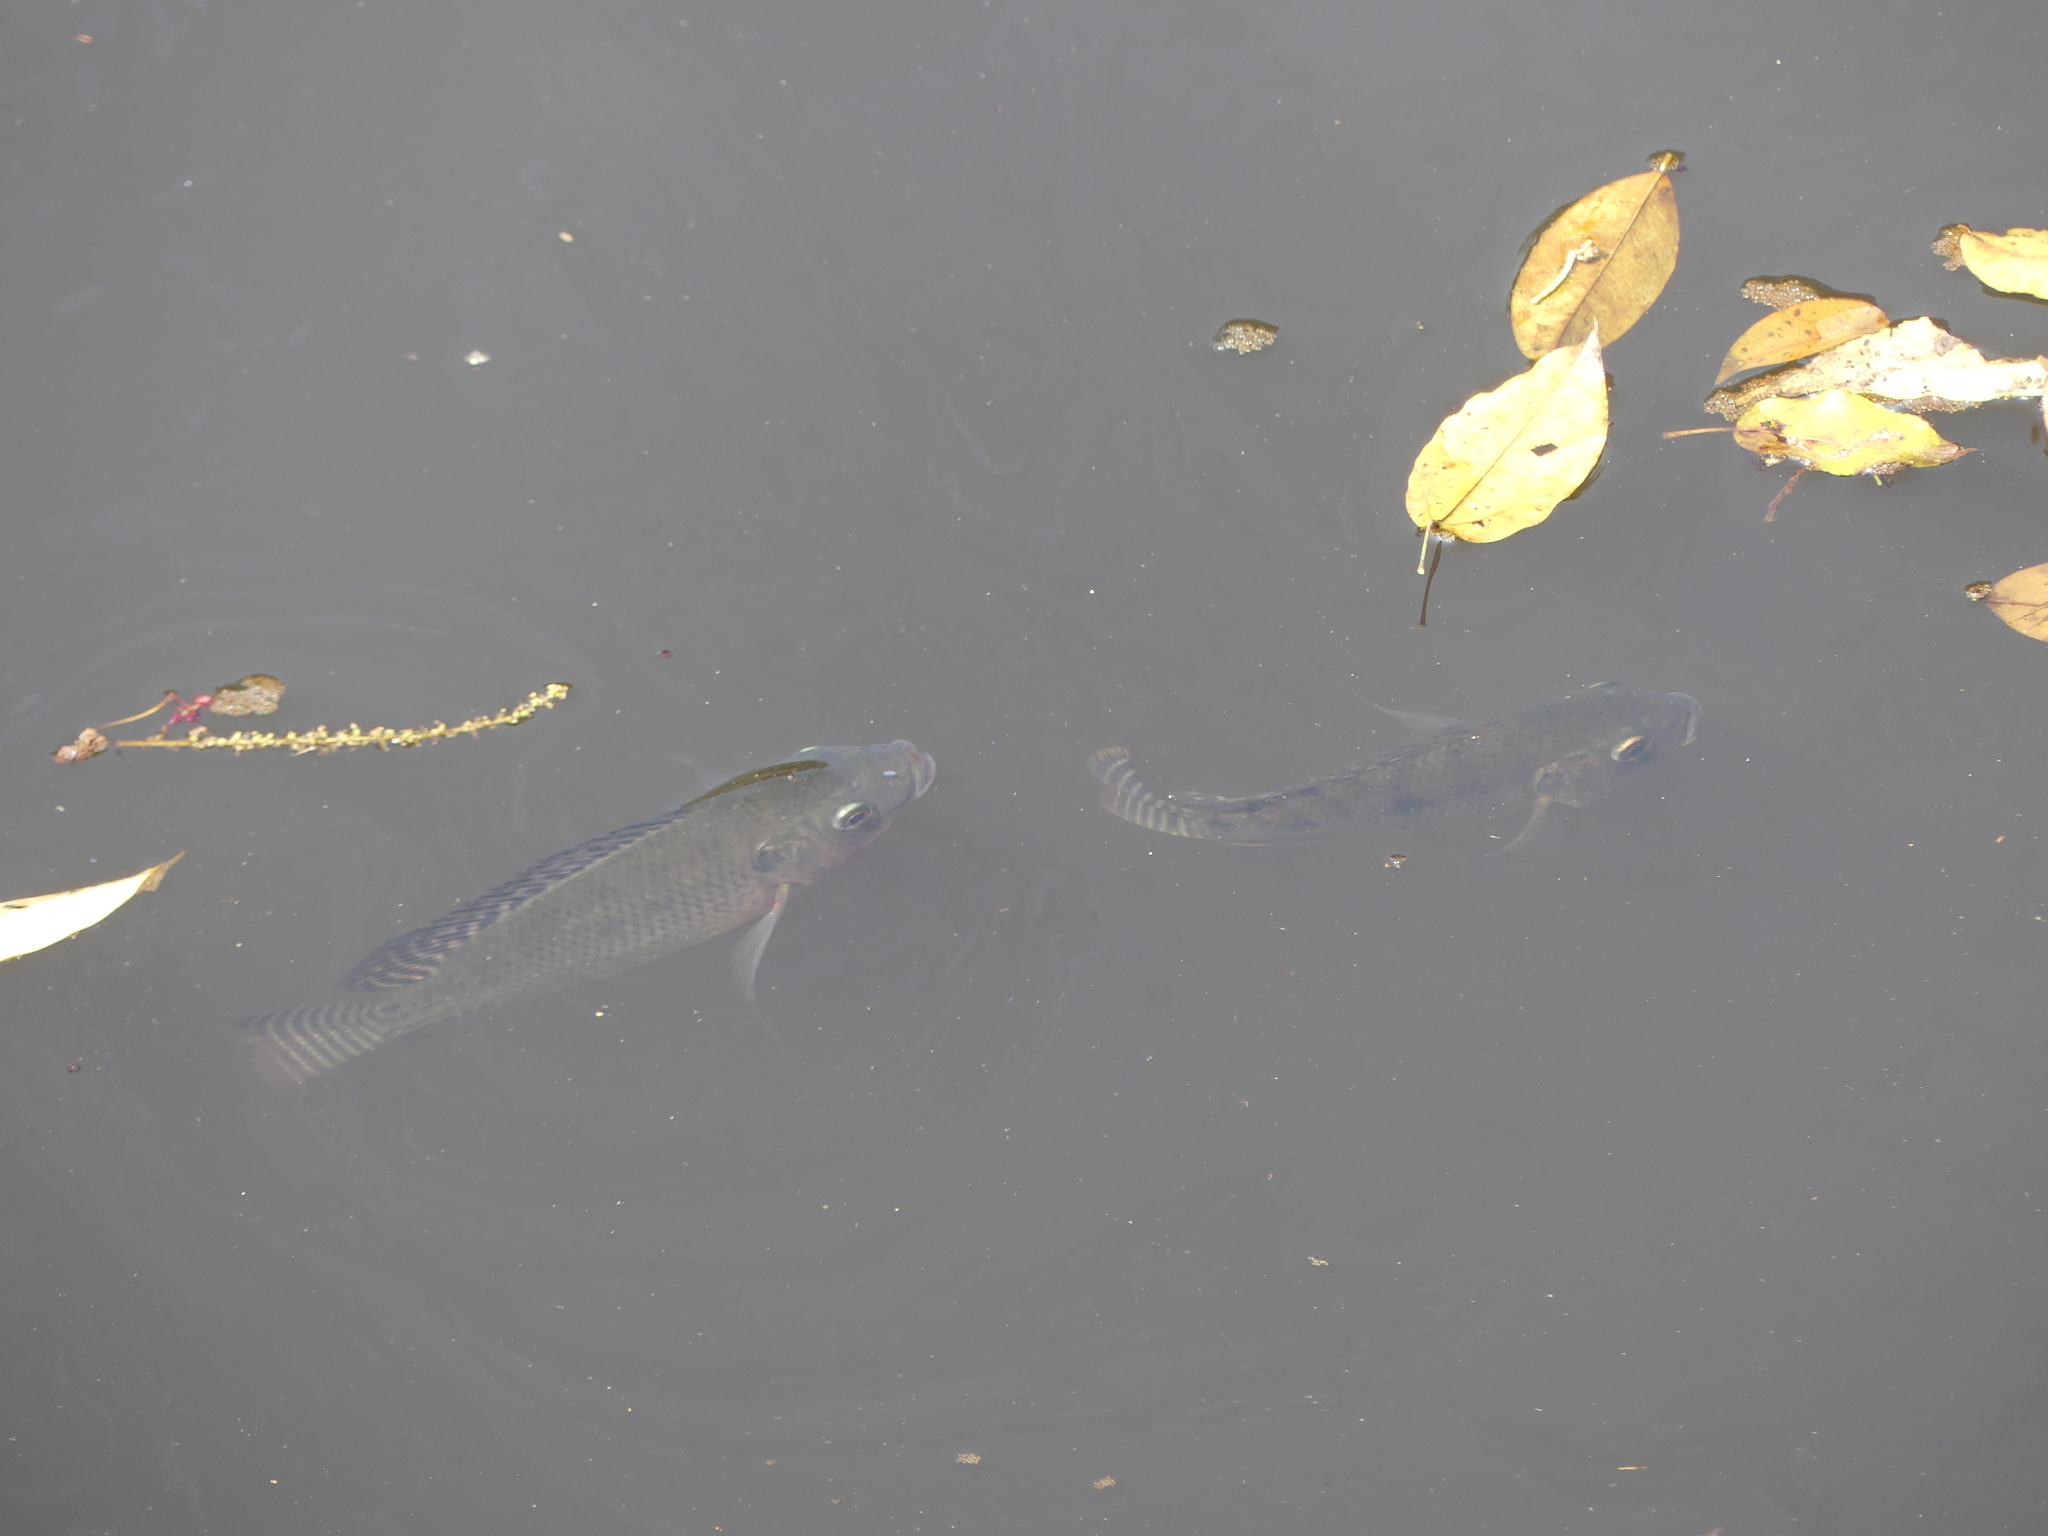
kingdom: Animalia
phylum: Chordata
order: Perciformes
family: Cichlidae
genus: Oreochromis
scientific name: Oreochromis niloticus
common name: Nile tilapia
